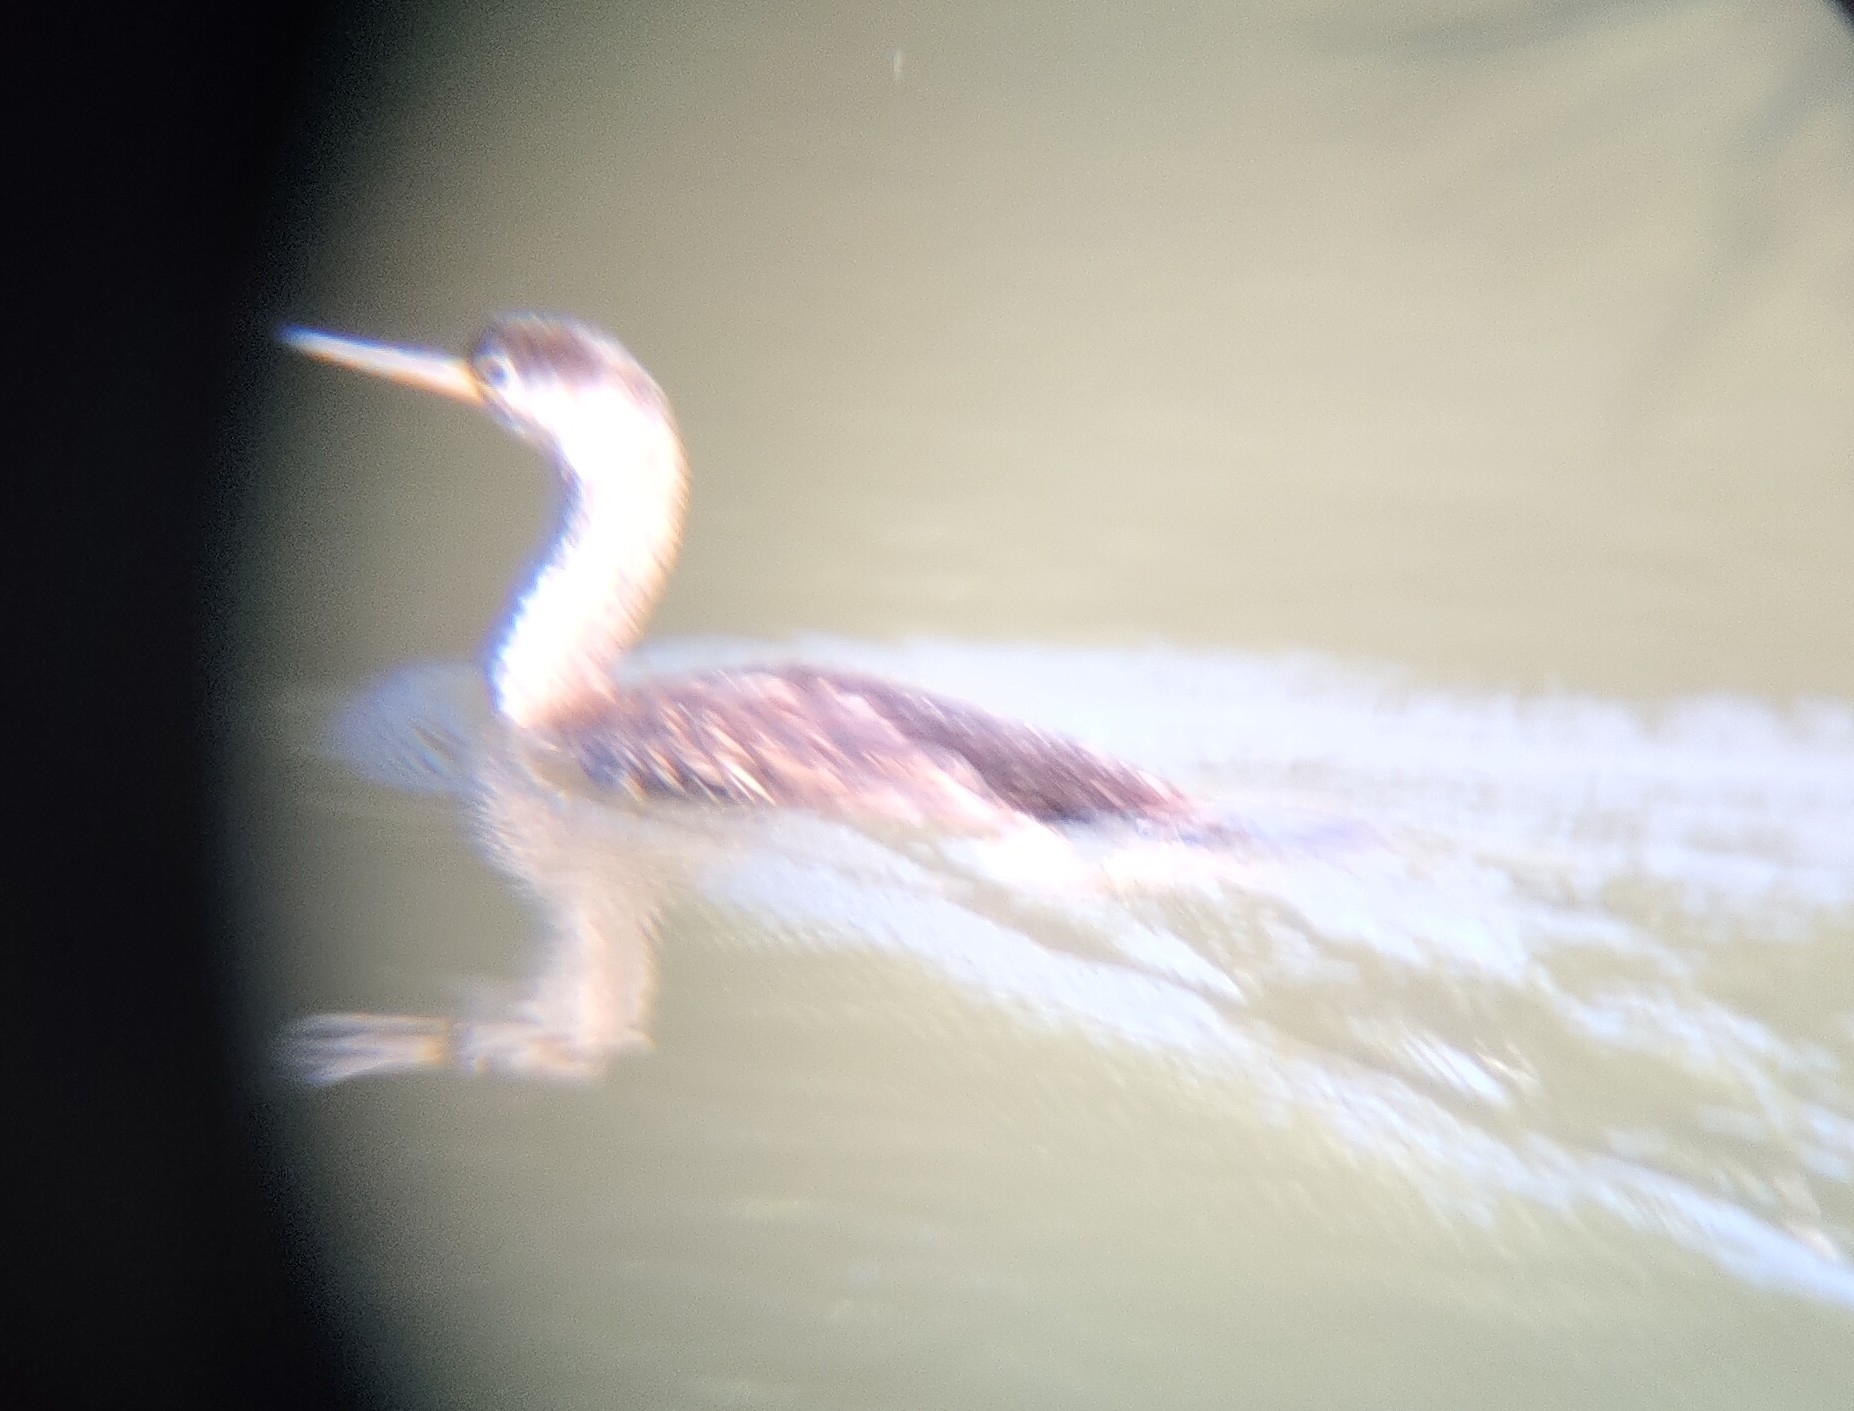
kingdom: Animalia
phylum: Chordata
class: Aves
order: Suliformes
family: Phalacrocoracidae
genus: Phalacrocorax
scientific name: Phalacrocorax punctatus
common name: Spotted shag
